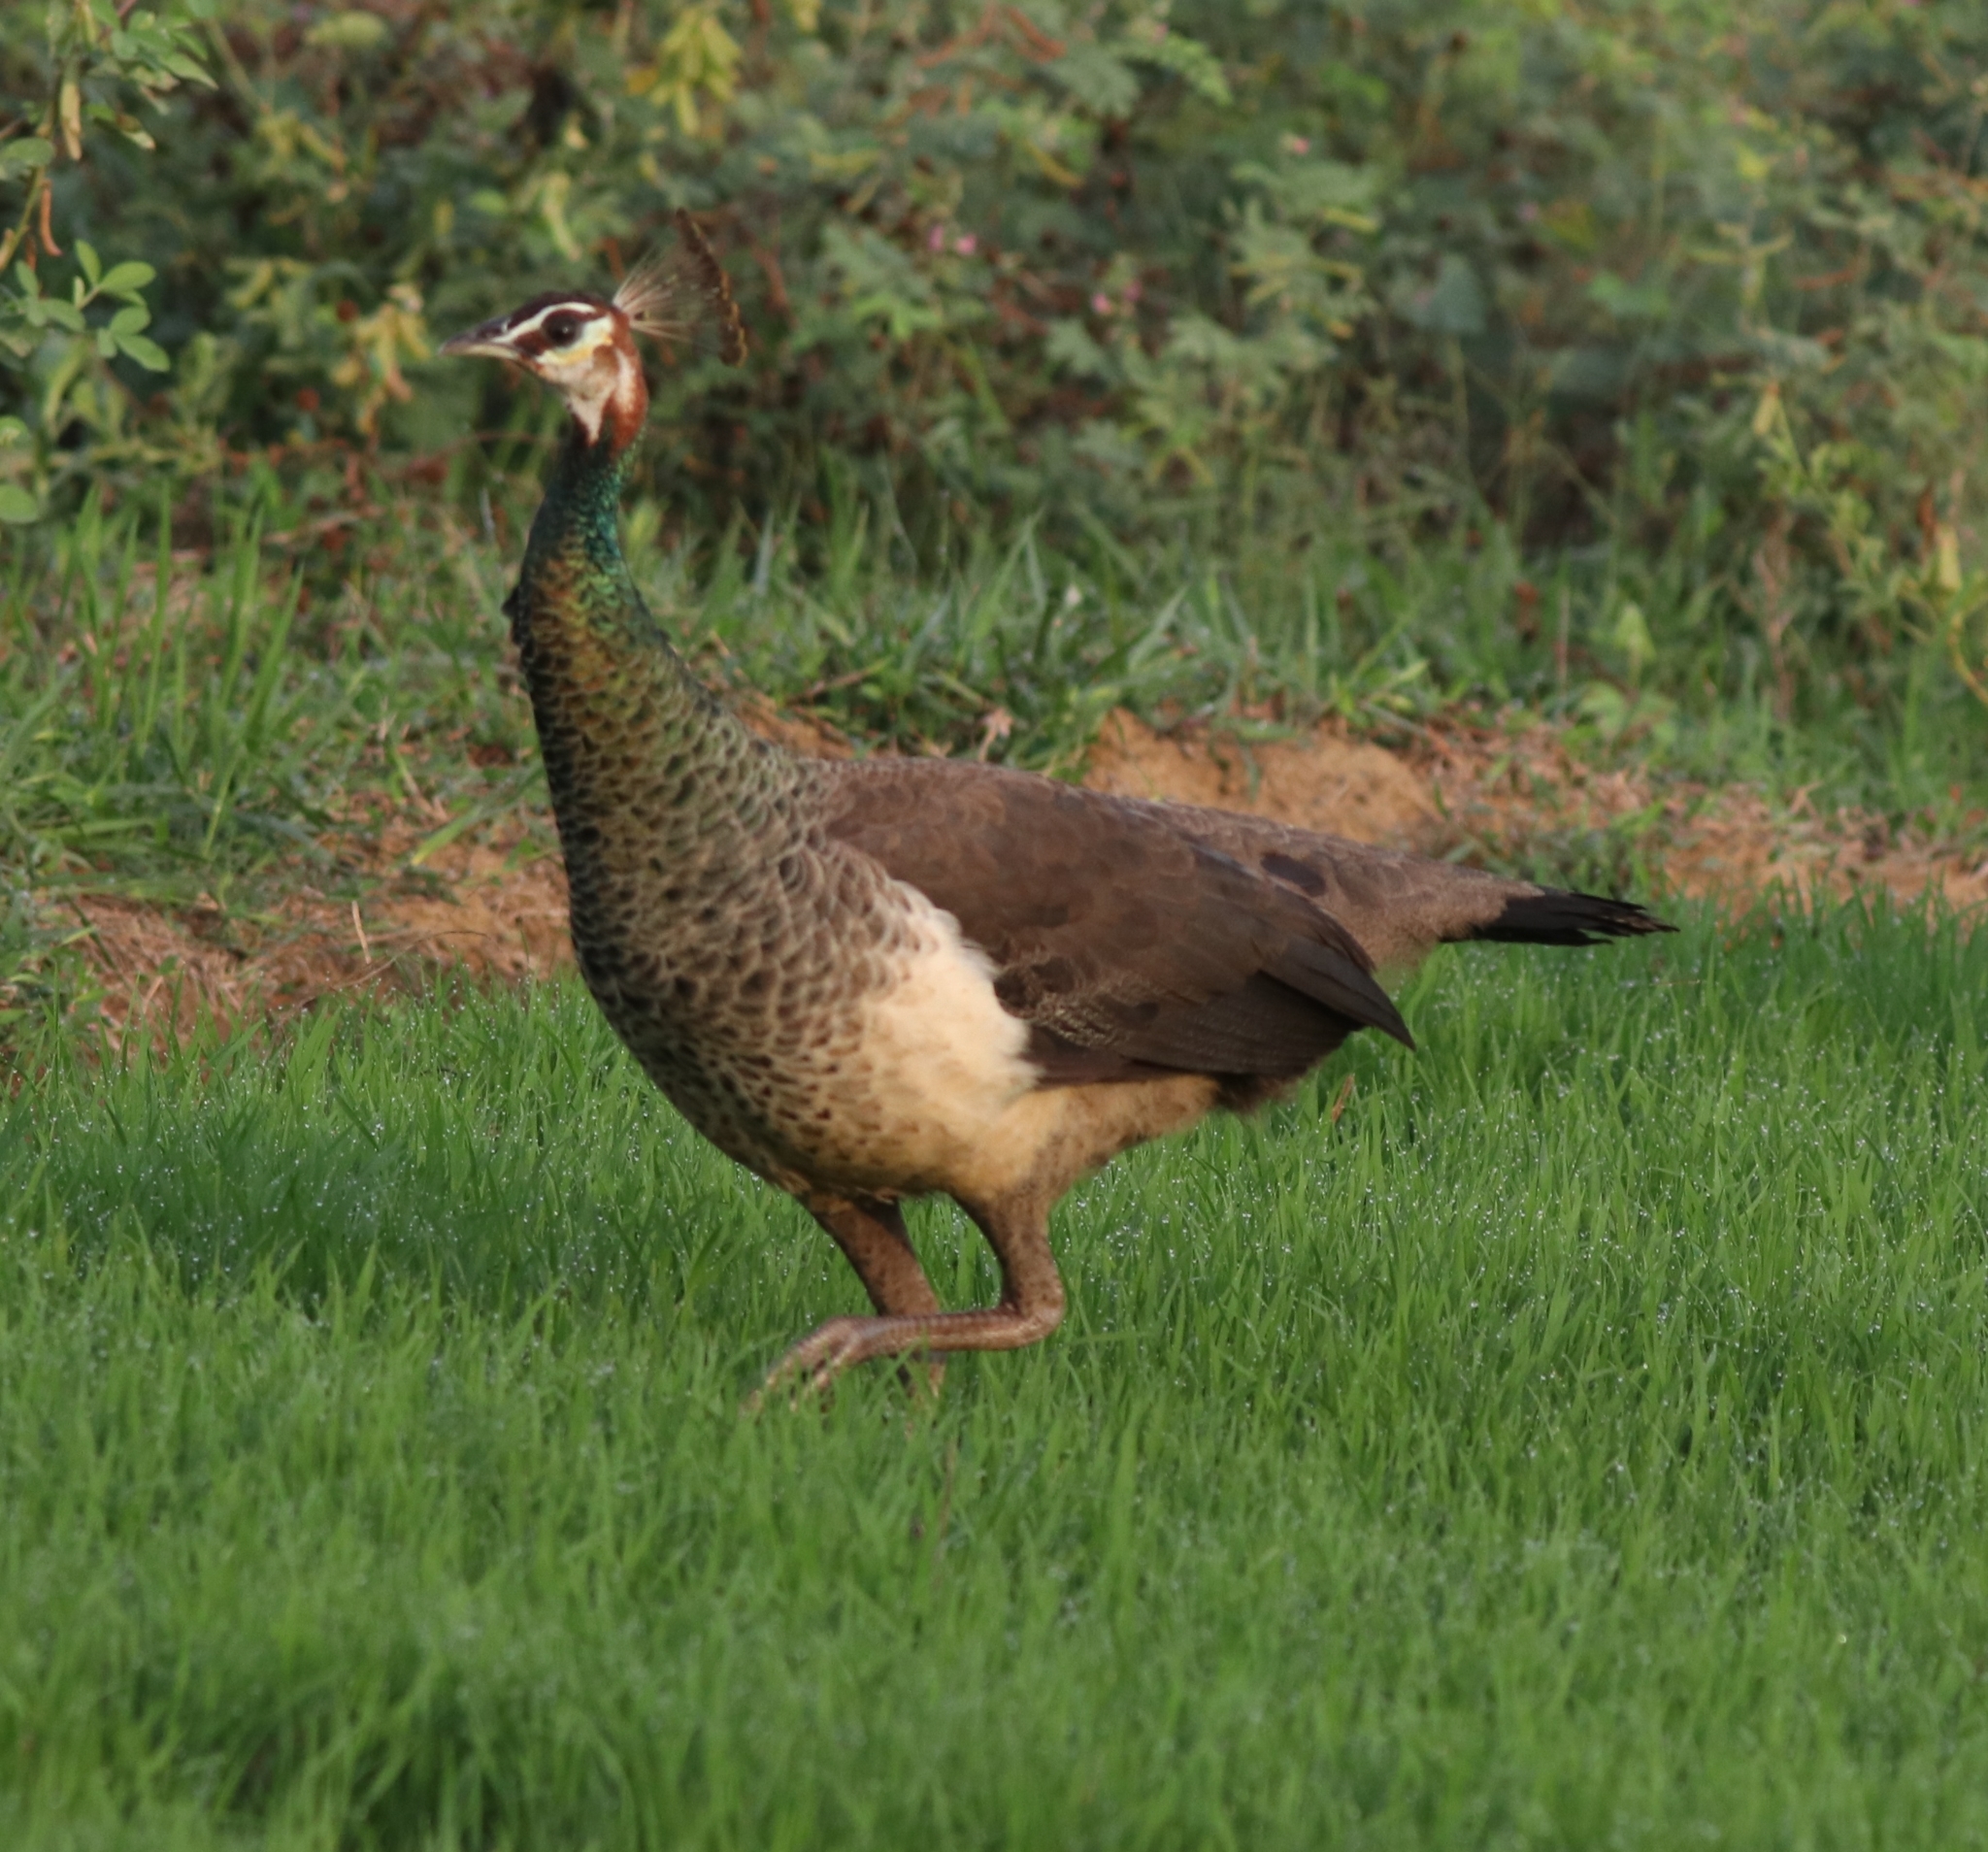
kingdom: Animalia
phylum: Chordata
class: Aves
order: Galliformes
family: Phasianidae
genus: Pavo
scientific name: Pavo cristatus
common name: Indian peafowl
